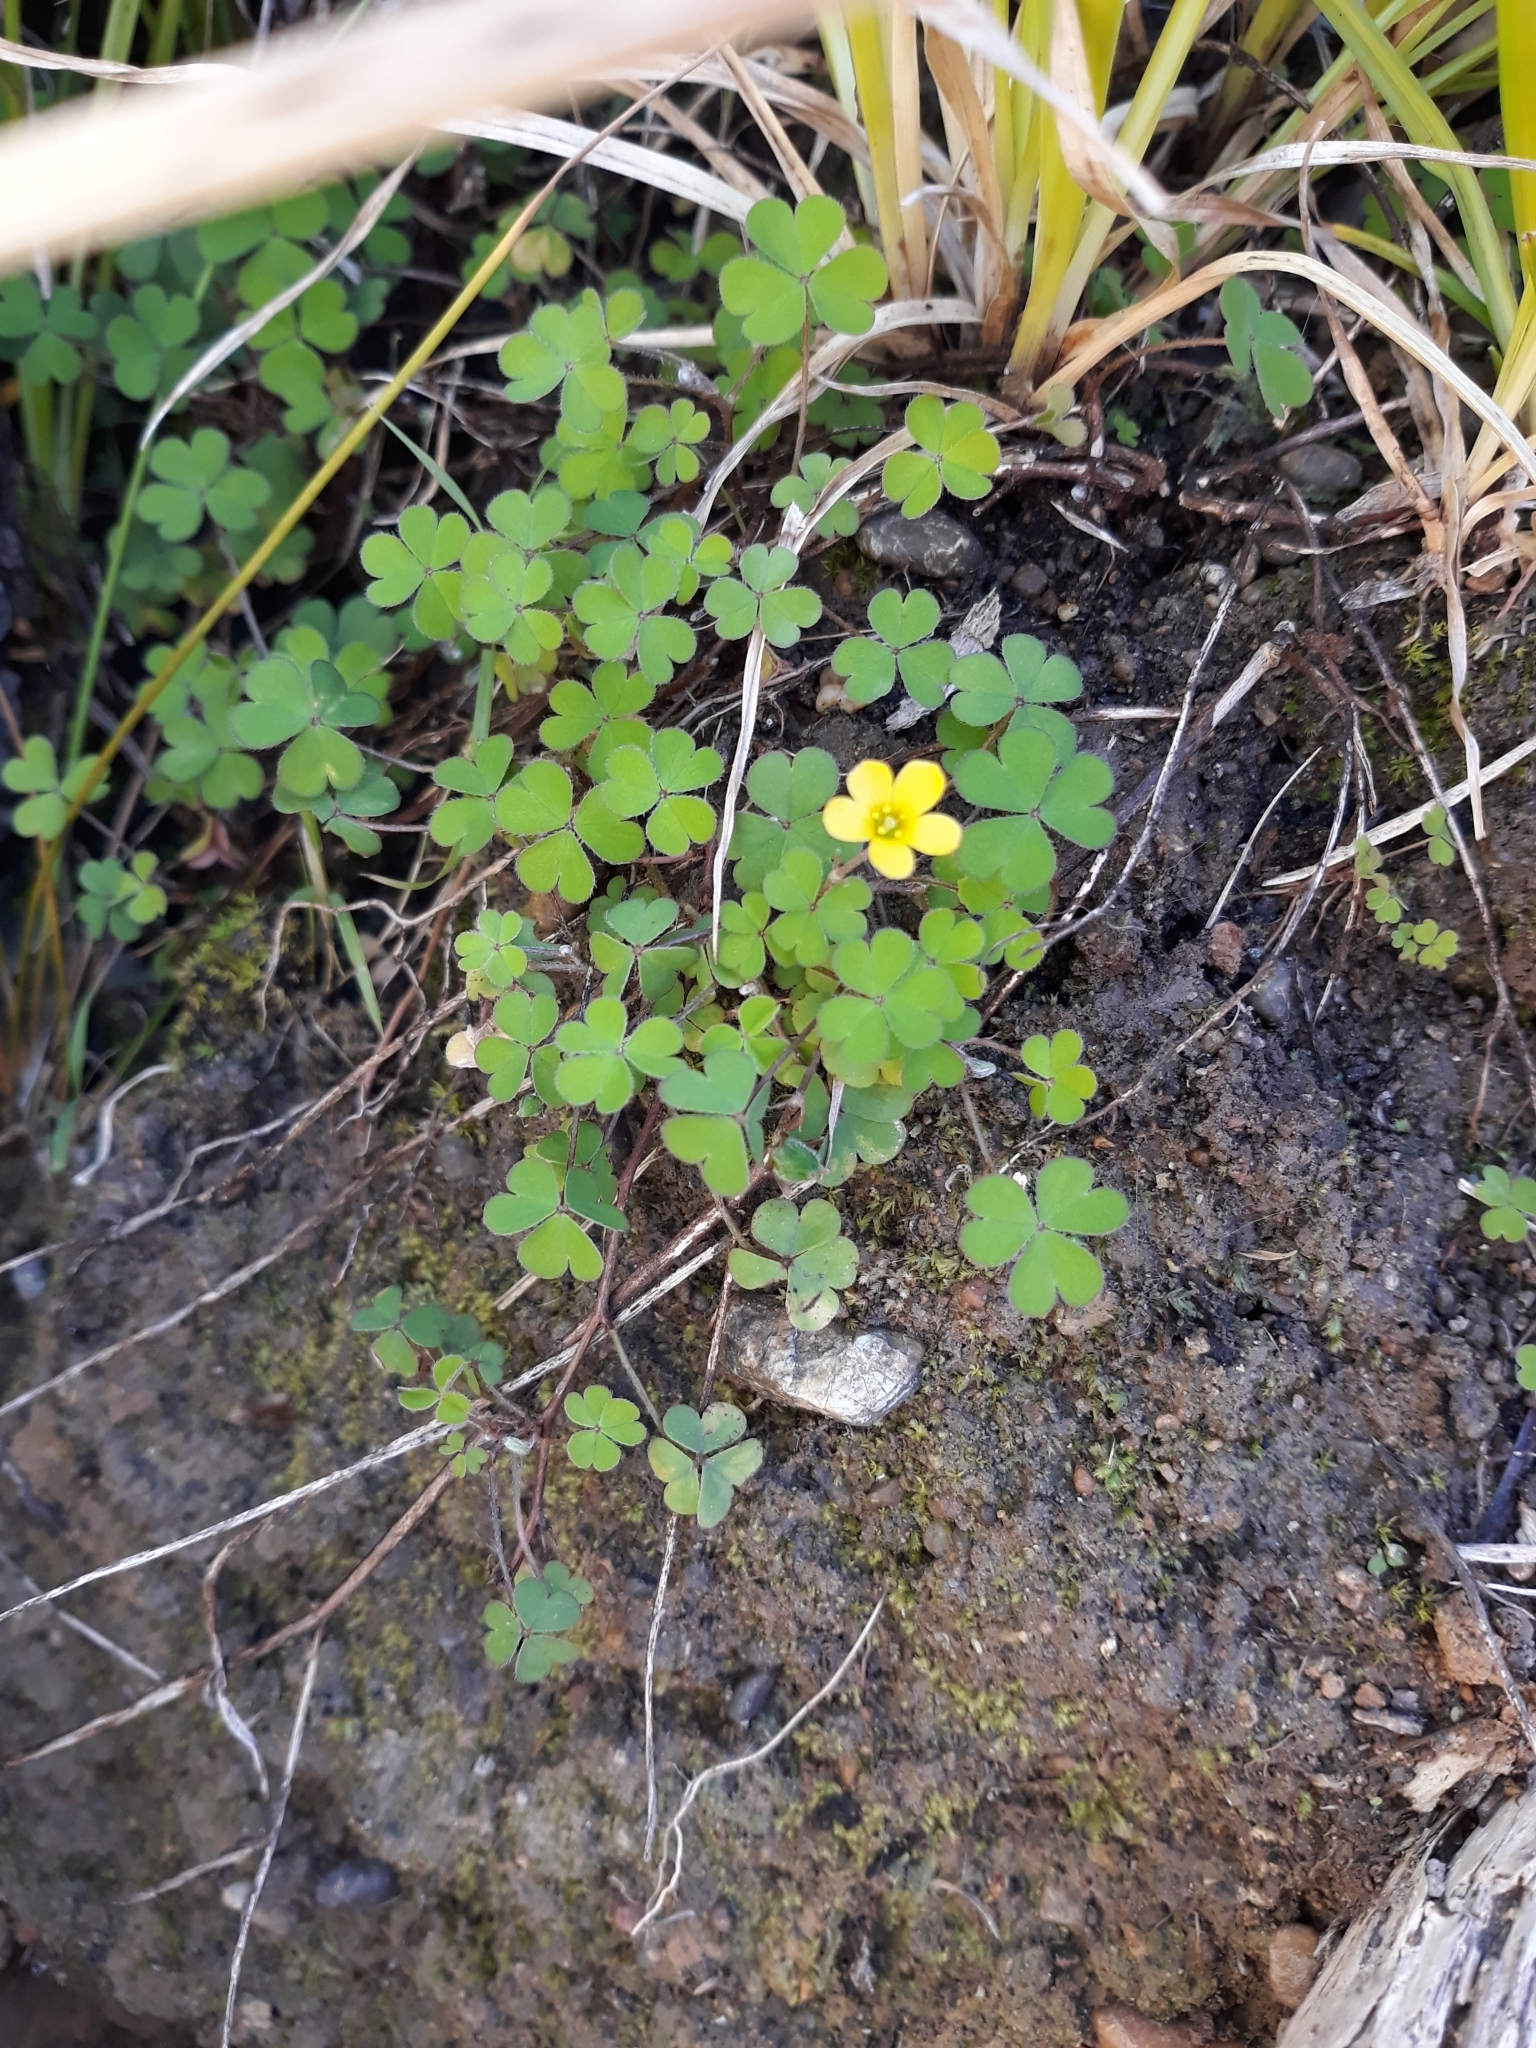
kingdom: Plantae
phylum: Tracheophyta
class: Magnoliopsida
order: Oxalidales
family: Oxalidaceae
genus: Oxalis
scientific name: Oxalis exilis
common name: Least yellow-sorrel
